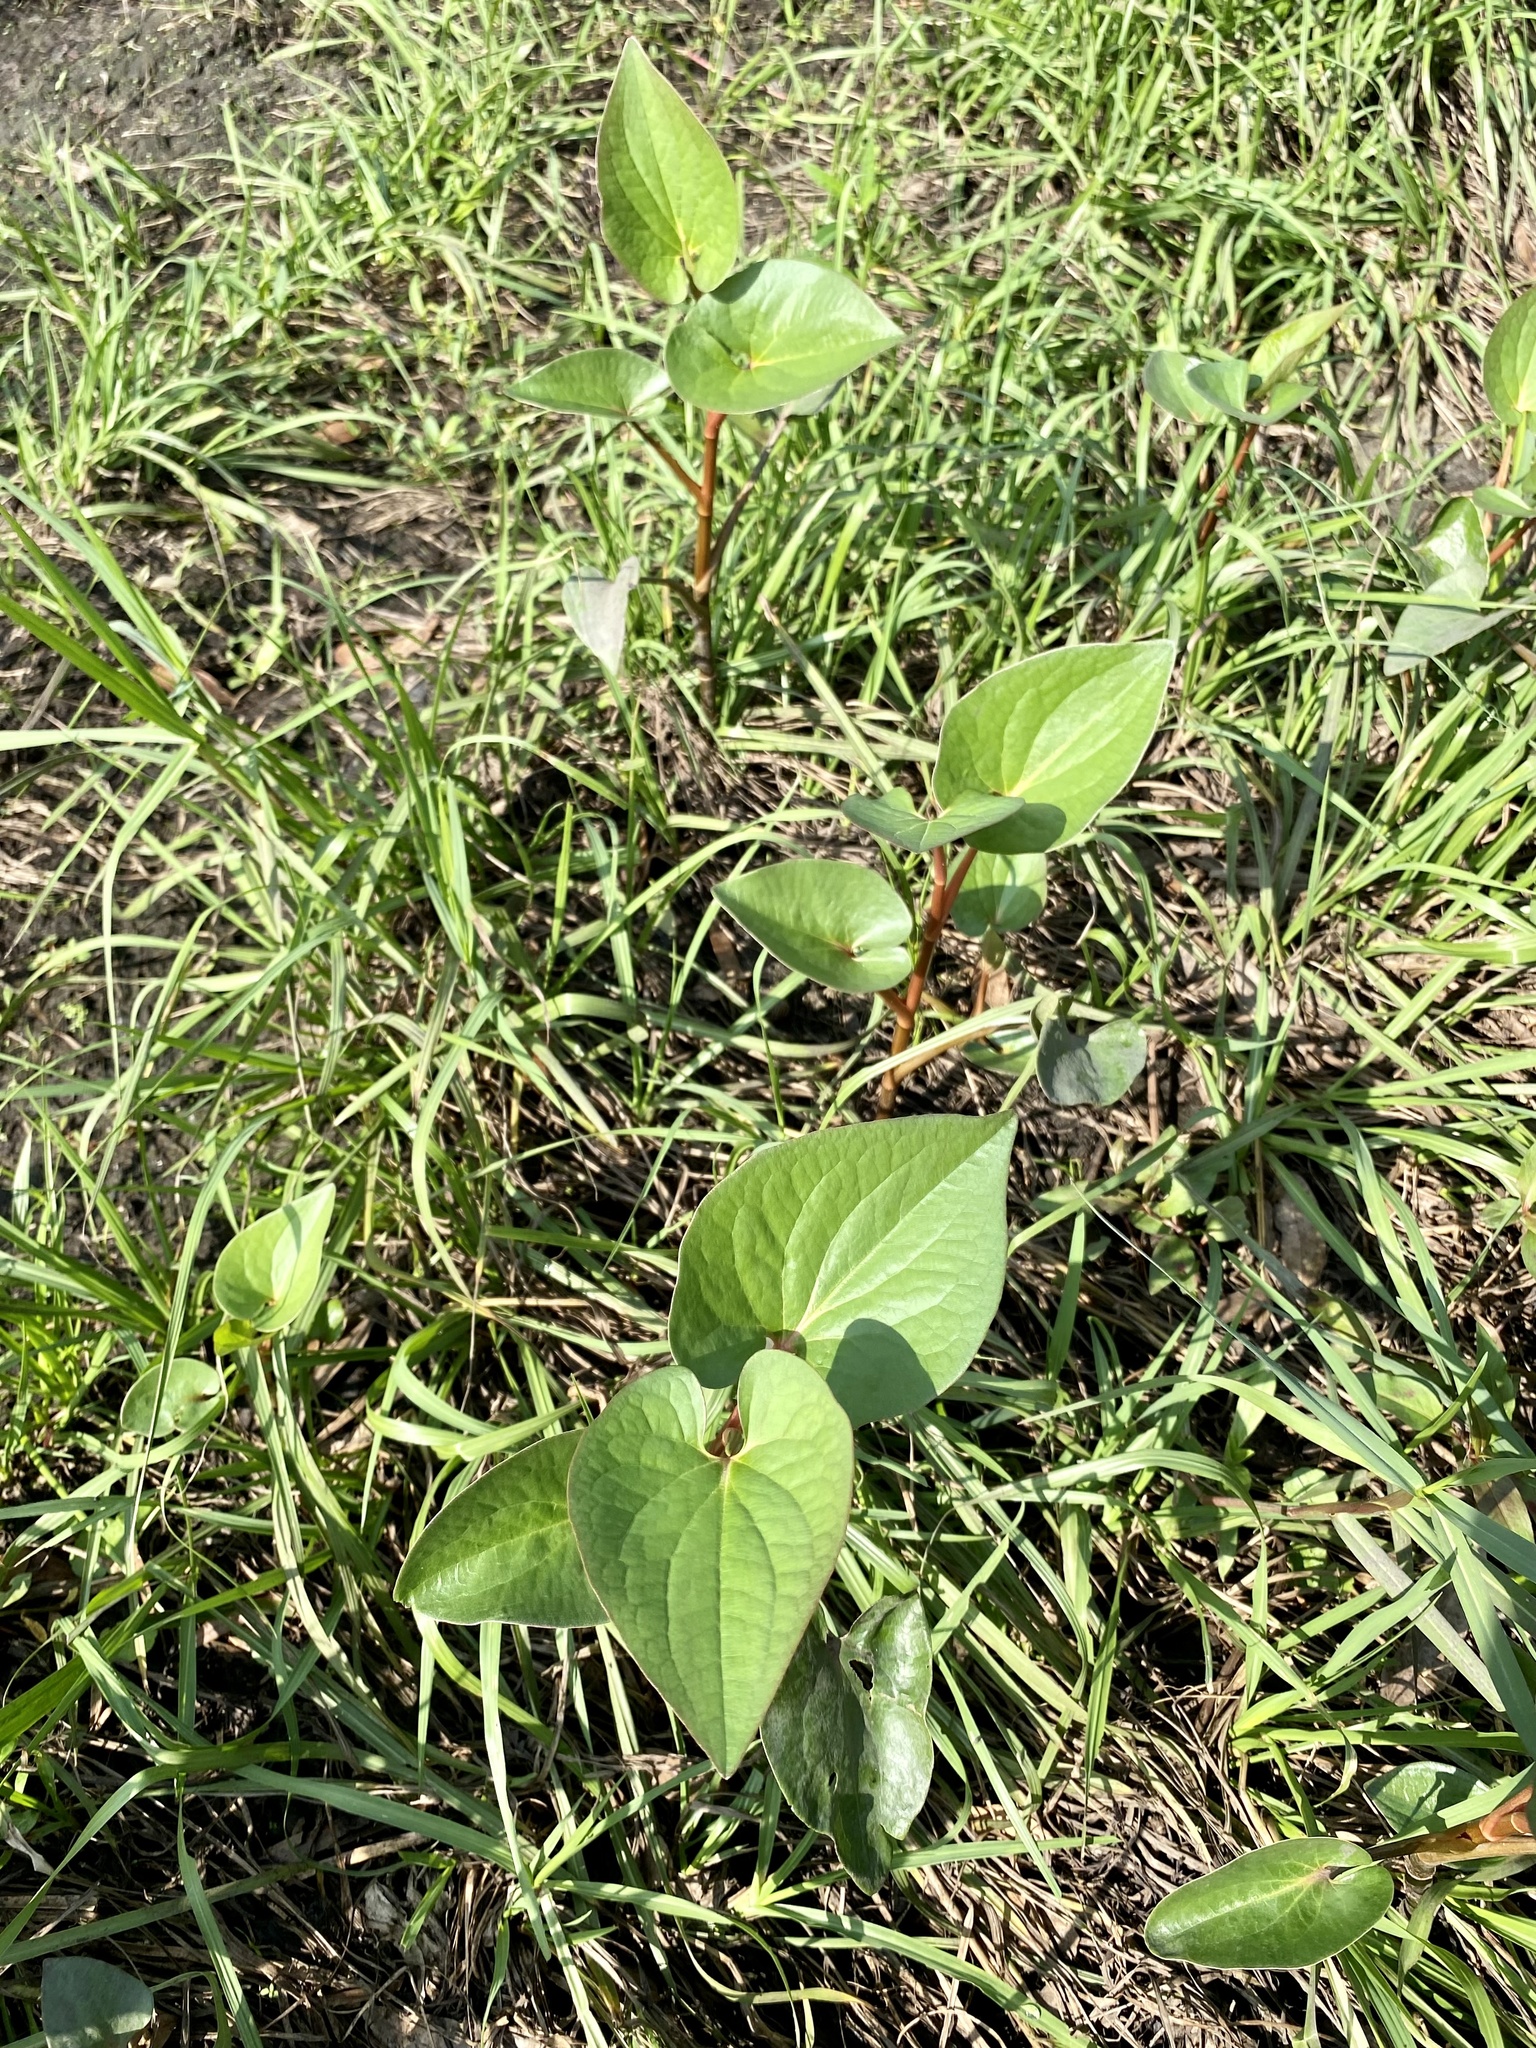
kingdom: Plantae
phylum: Tracheophyta
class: Magnoliopsida
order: Piperales
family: Saururaceae
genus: Saururus
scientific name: Saururus cernuus
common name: Lizard's-tail
